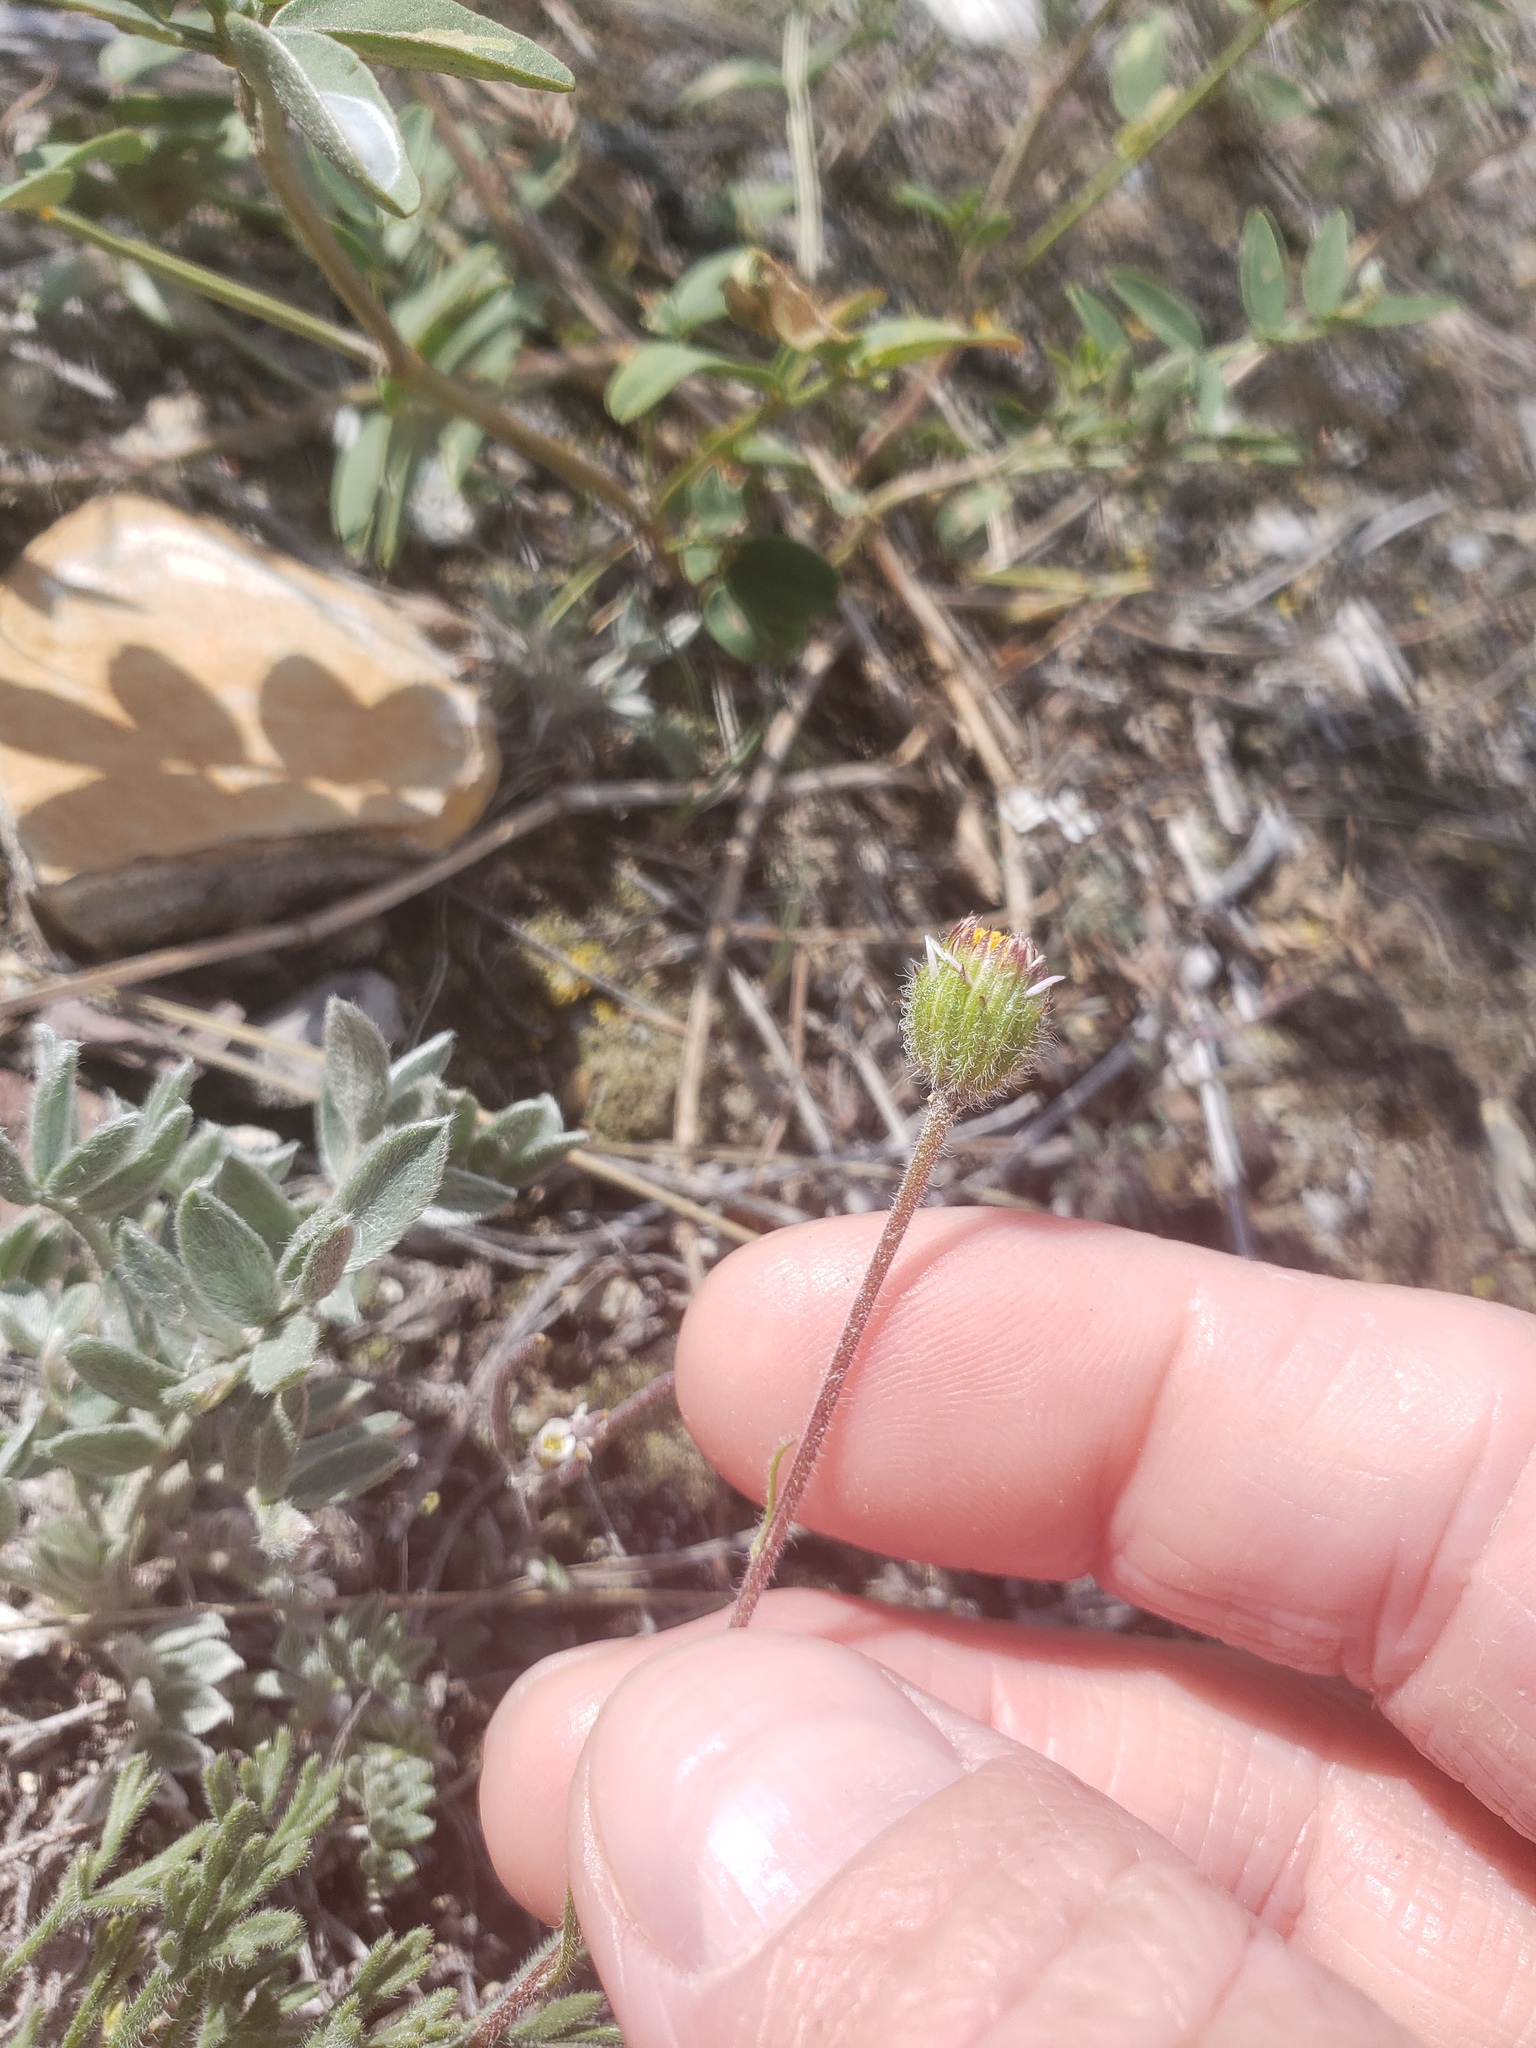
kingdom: Plantae
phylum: Tracheophyta
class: Magnoliopsida
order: Asterales
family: Asteraceae
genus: Erigeron
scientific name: Erigeron compositus
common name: Dwarf mountain fleabane
